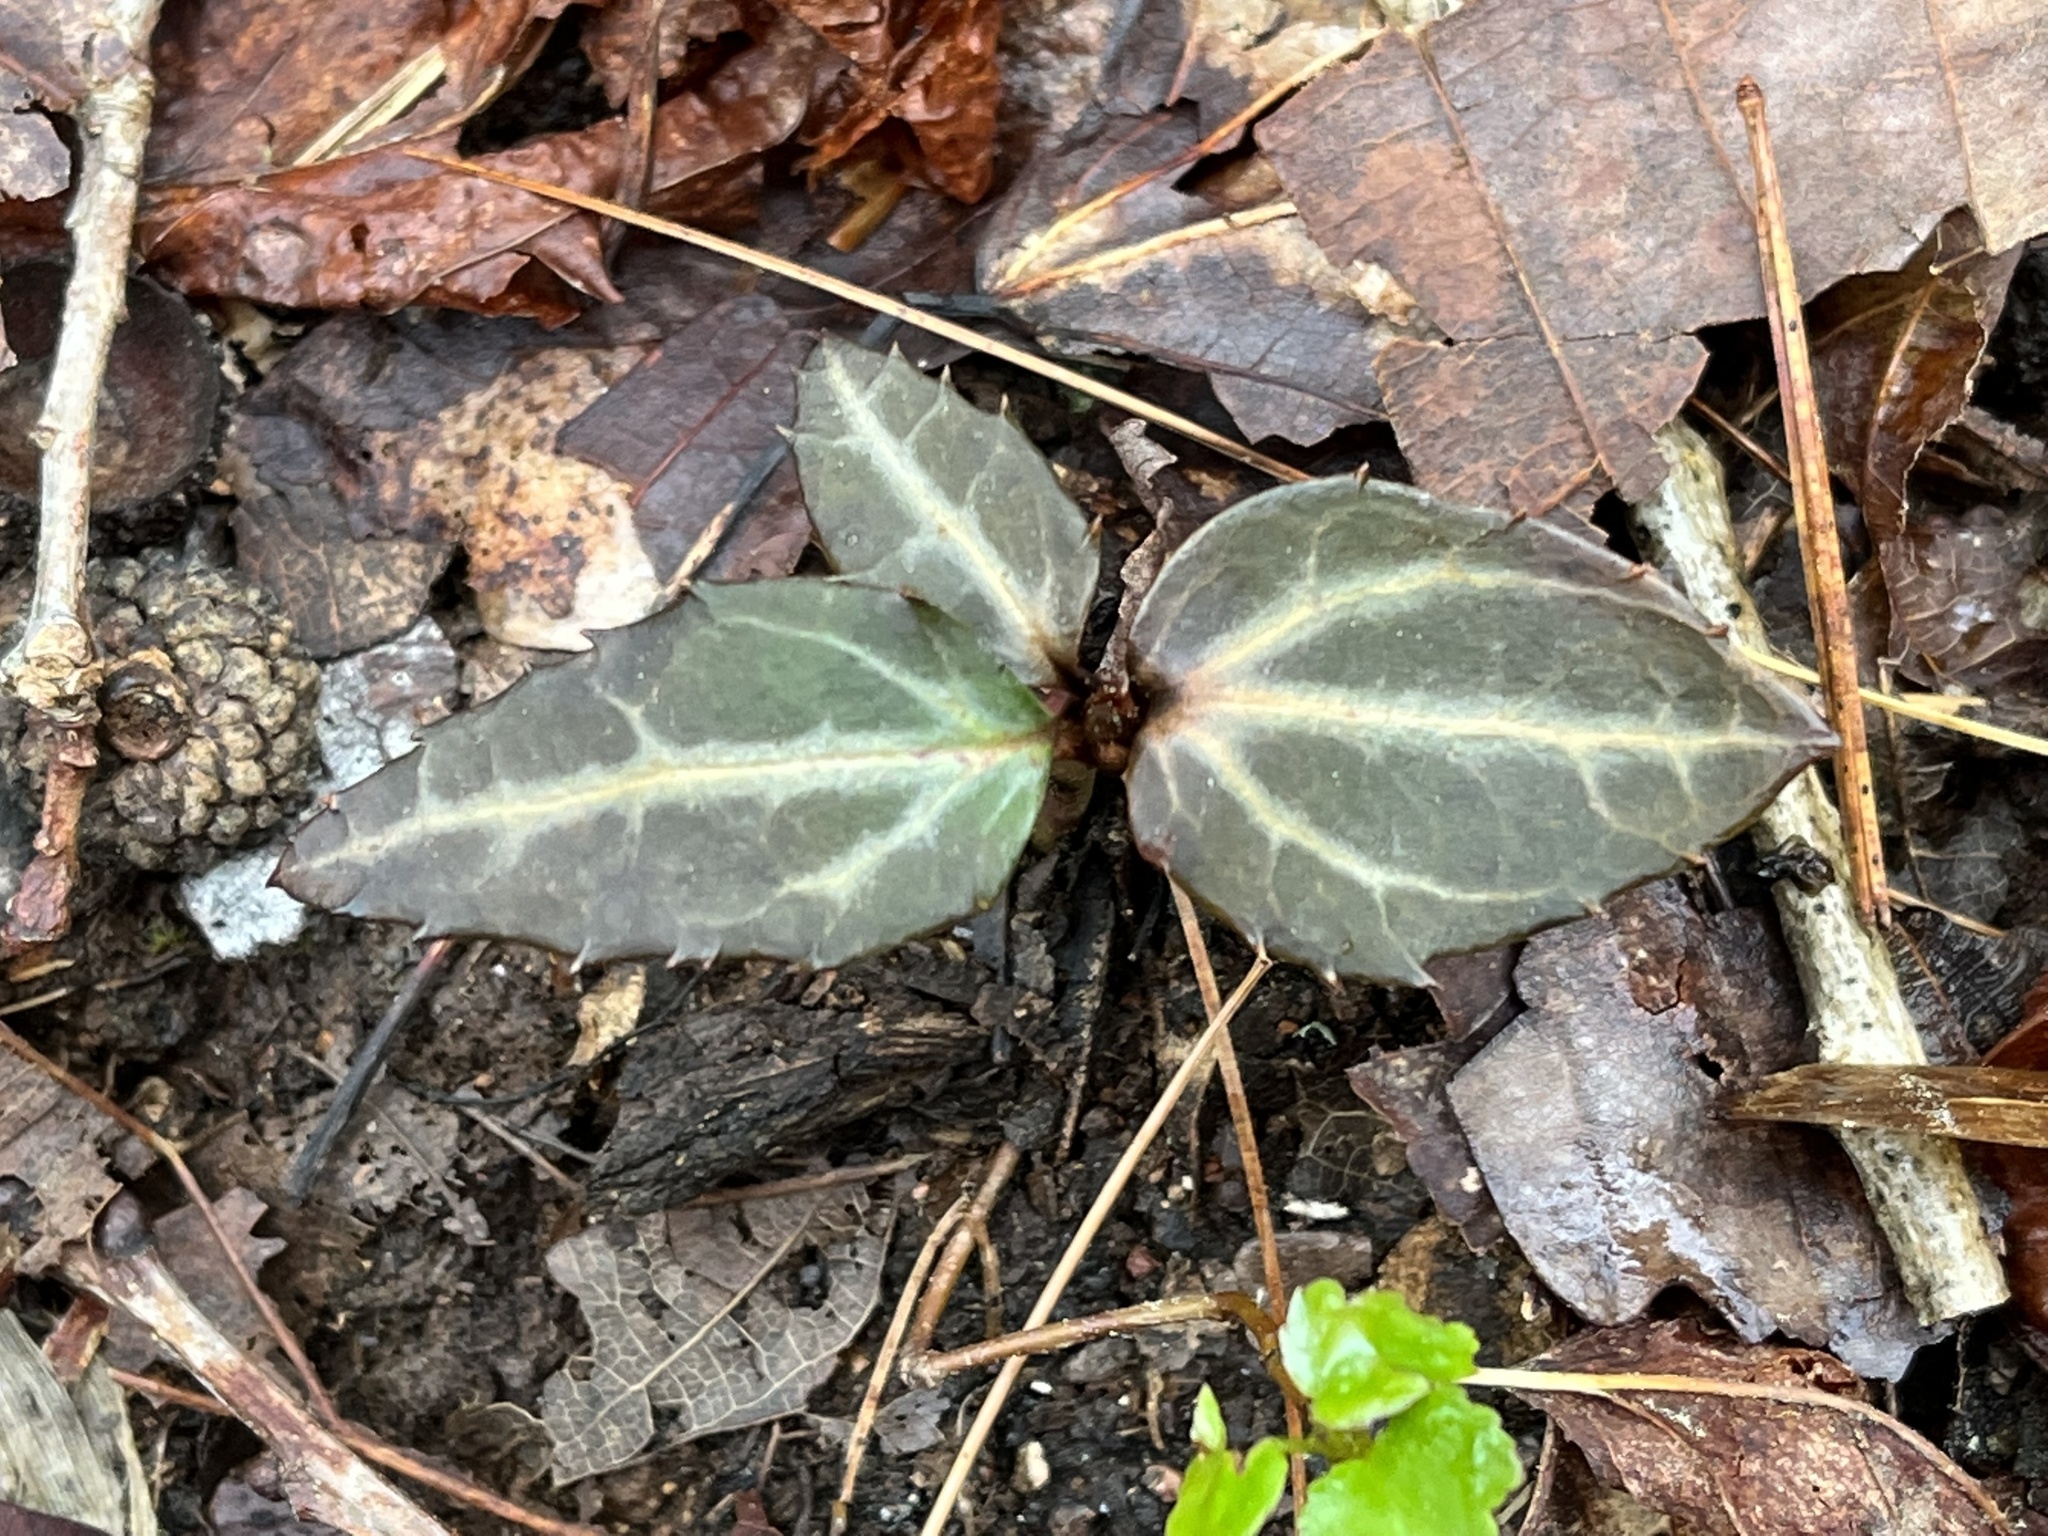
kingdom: Plantae
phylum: Tracheophyta
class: Magnoliopsida
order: Ericales
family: Ericaceae
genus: Chimaphila
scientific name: Chimaphila maculata
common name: Spotted pipsissewa
